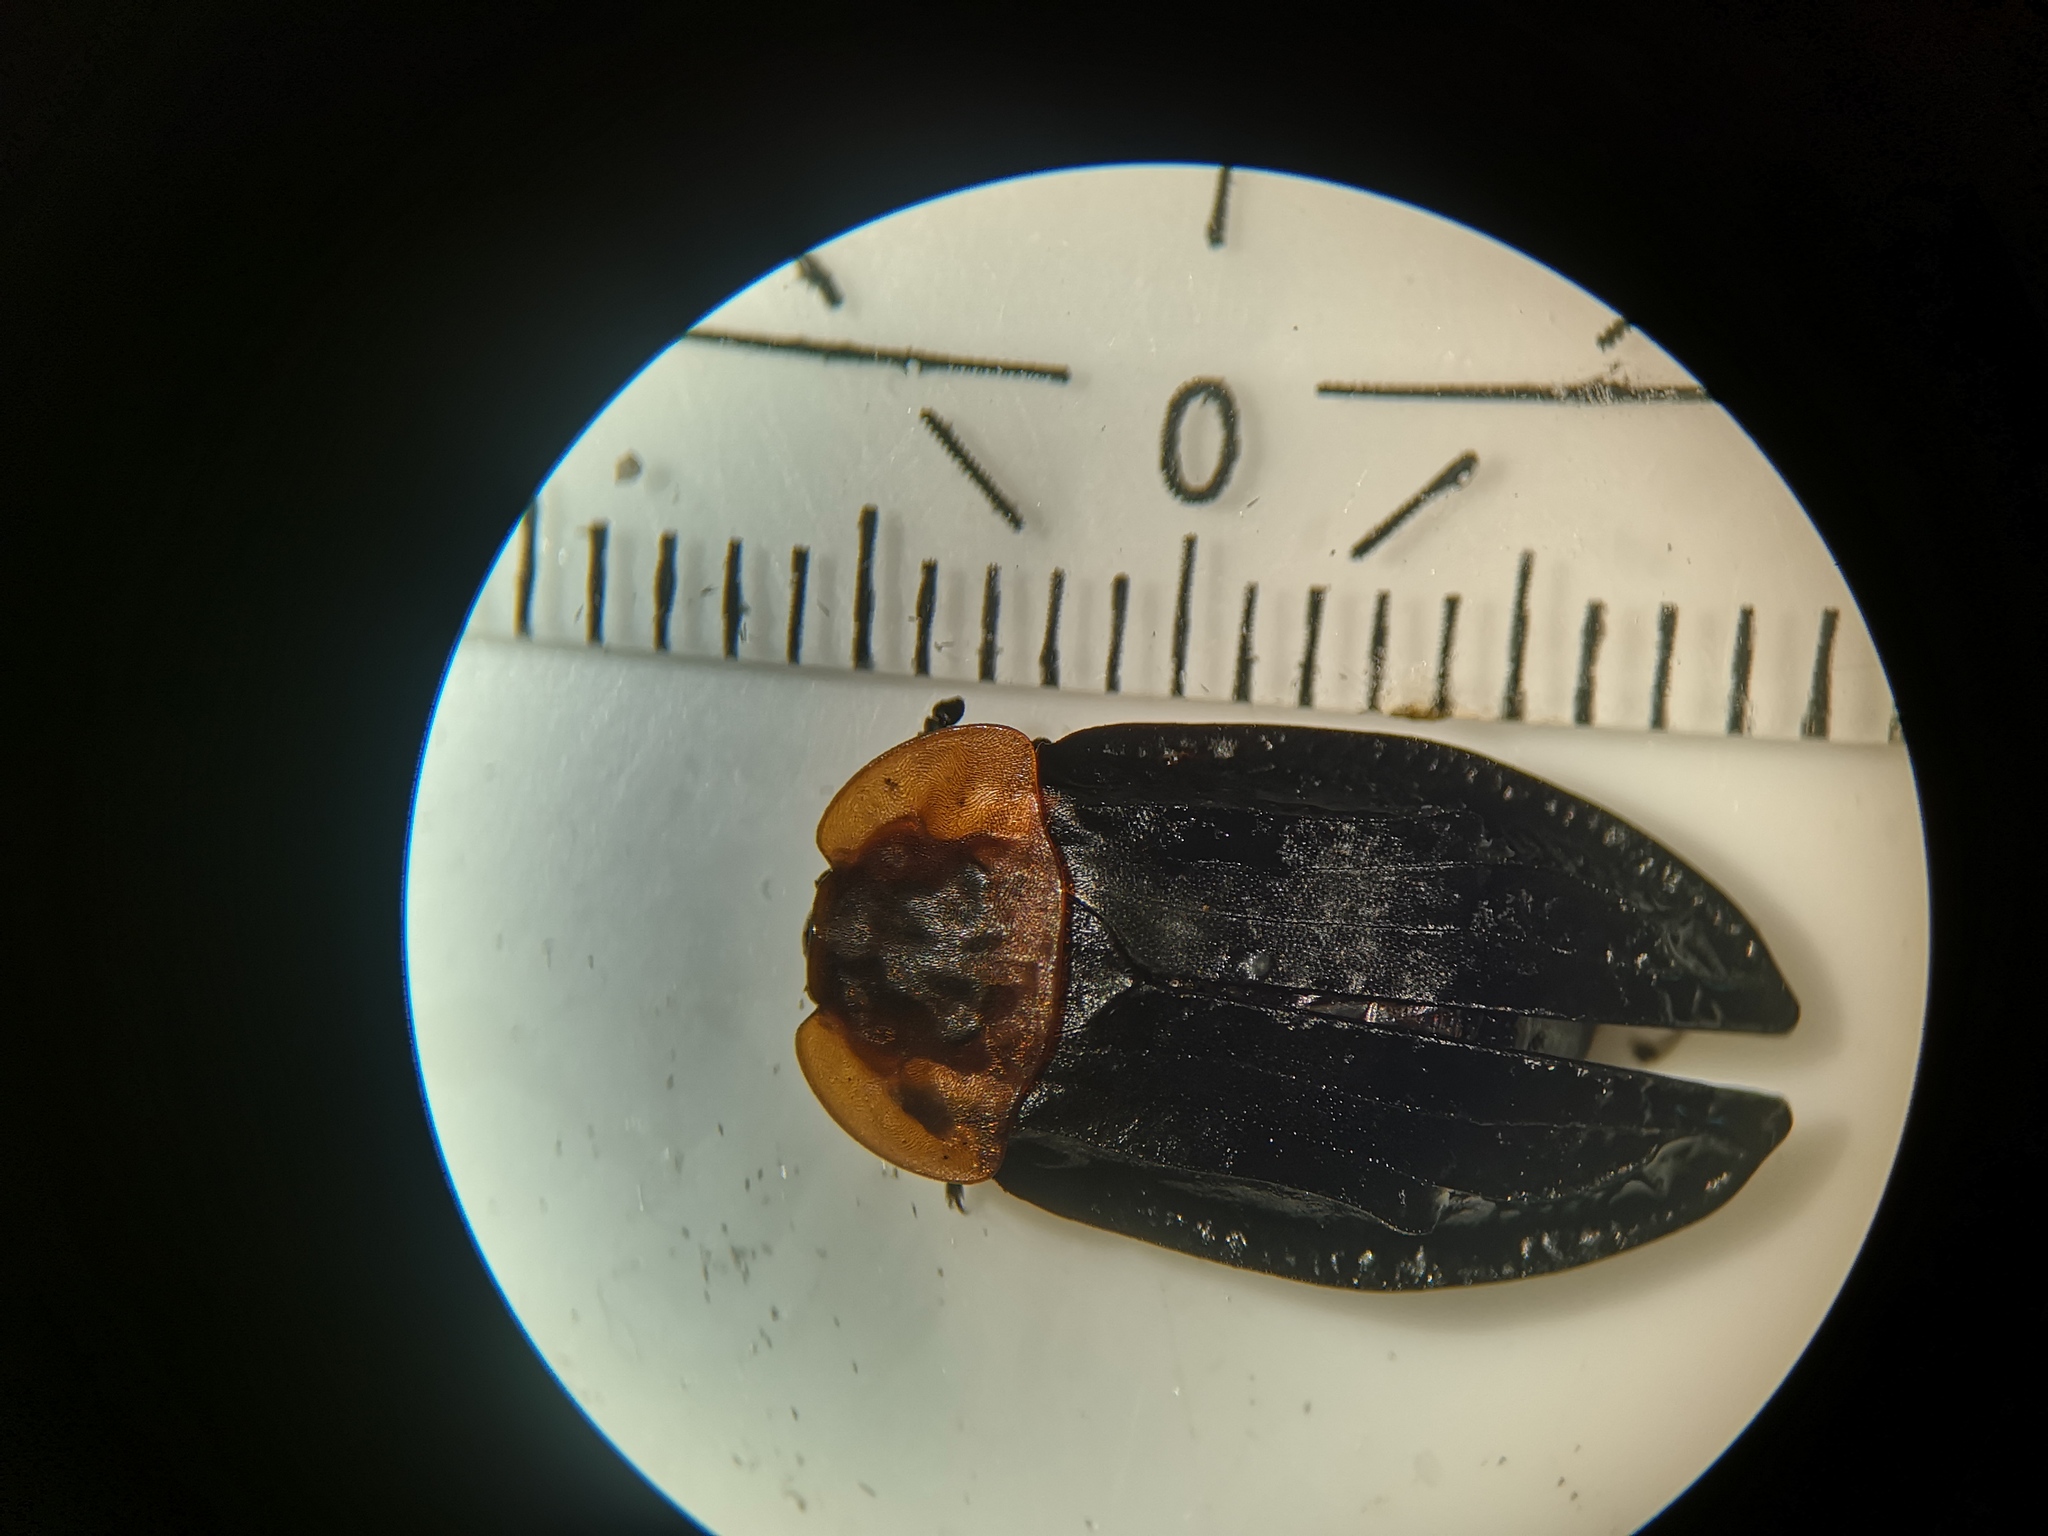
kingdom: Animalia
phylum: Arthropoda
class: Insecta
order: Coleoptera
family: Staphylinidae
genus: Oiceoptoma
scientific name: Oiceoptoma thoracicum
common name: Red-breasted carrion beetle
